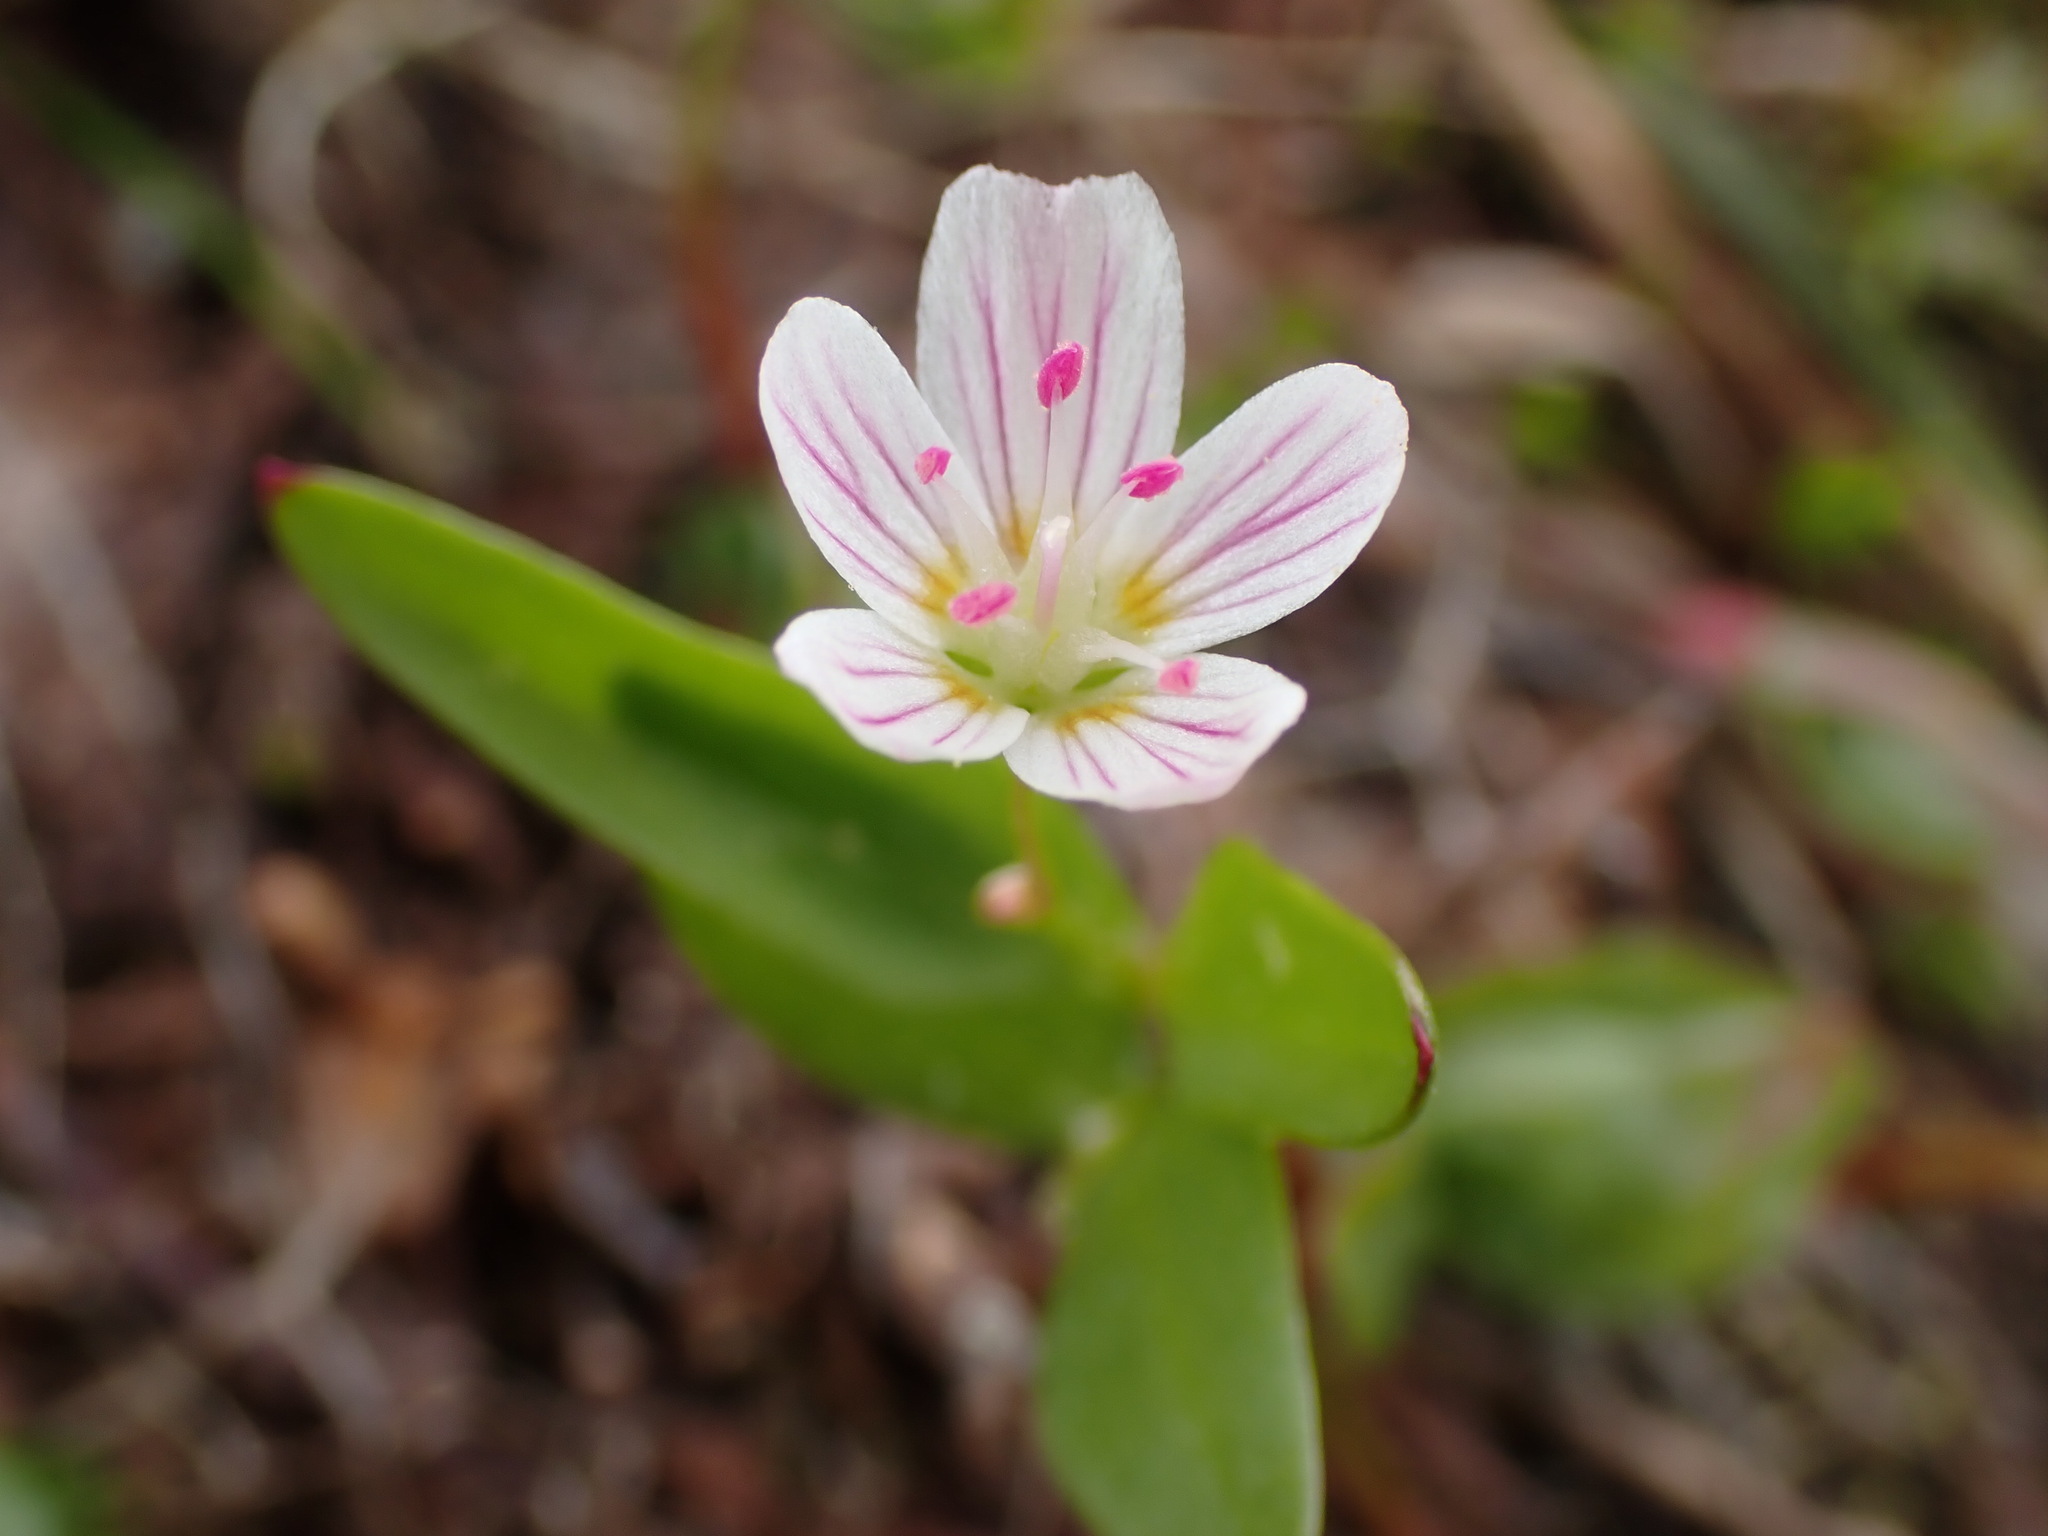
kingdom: Plantae
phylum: Tracheophyta
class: Magnoliopsida
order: Caryophyllales
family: Montiaceae
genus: Claytonia
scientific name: Claytonia lanceolata
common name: Western spring-beauty
